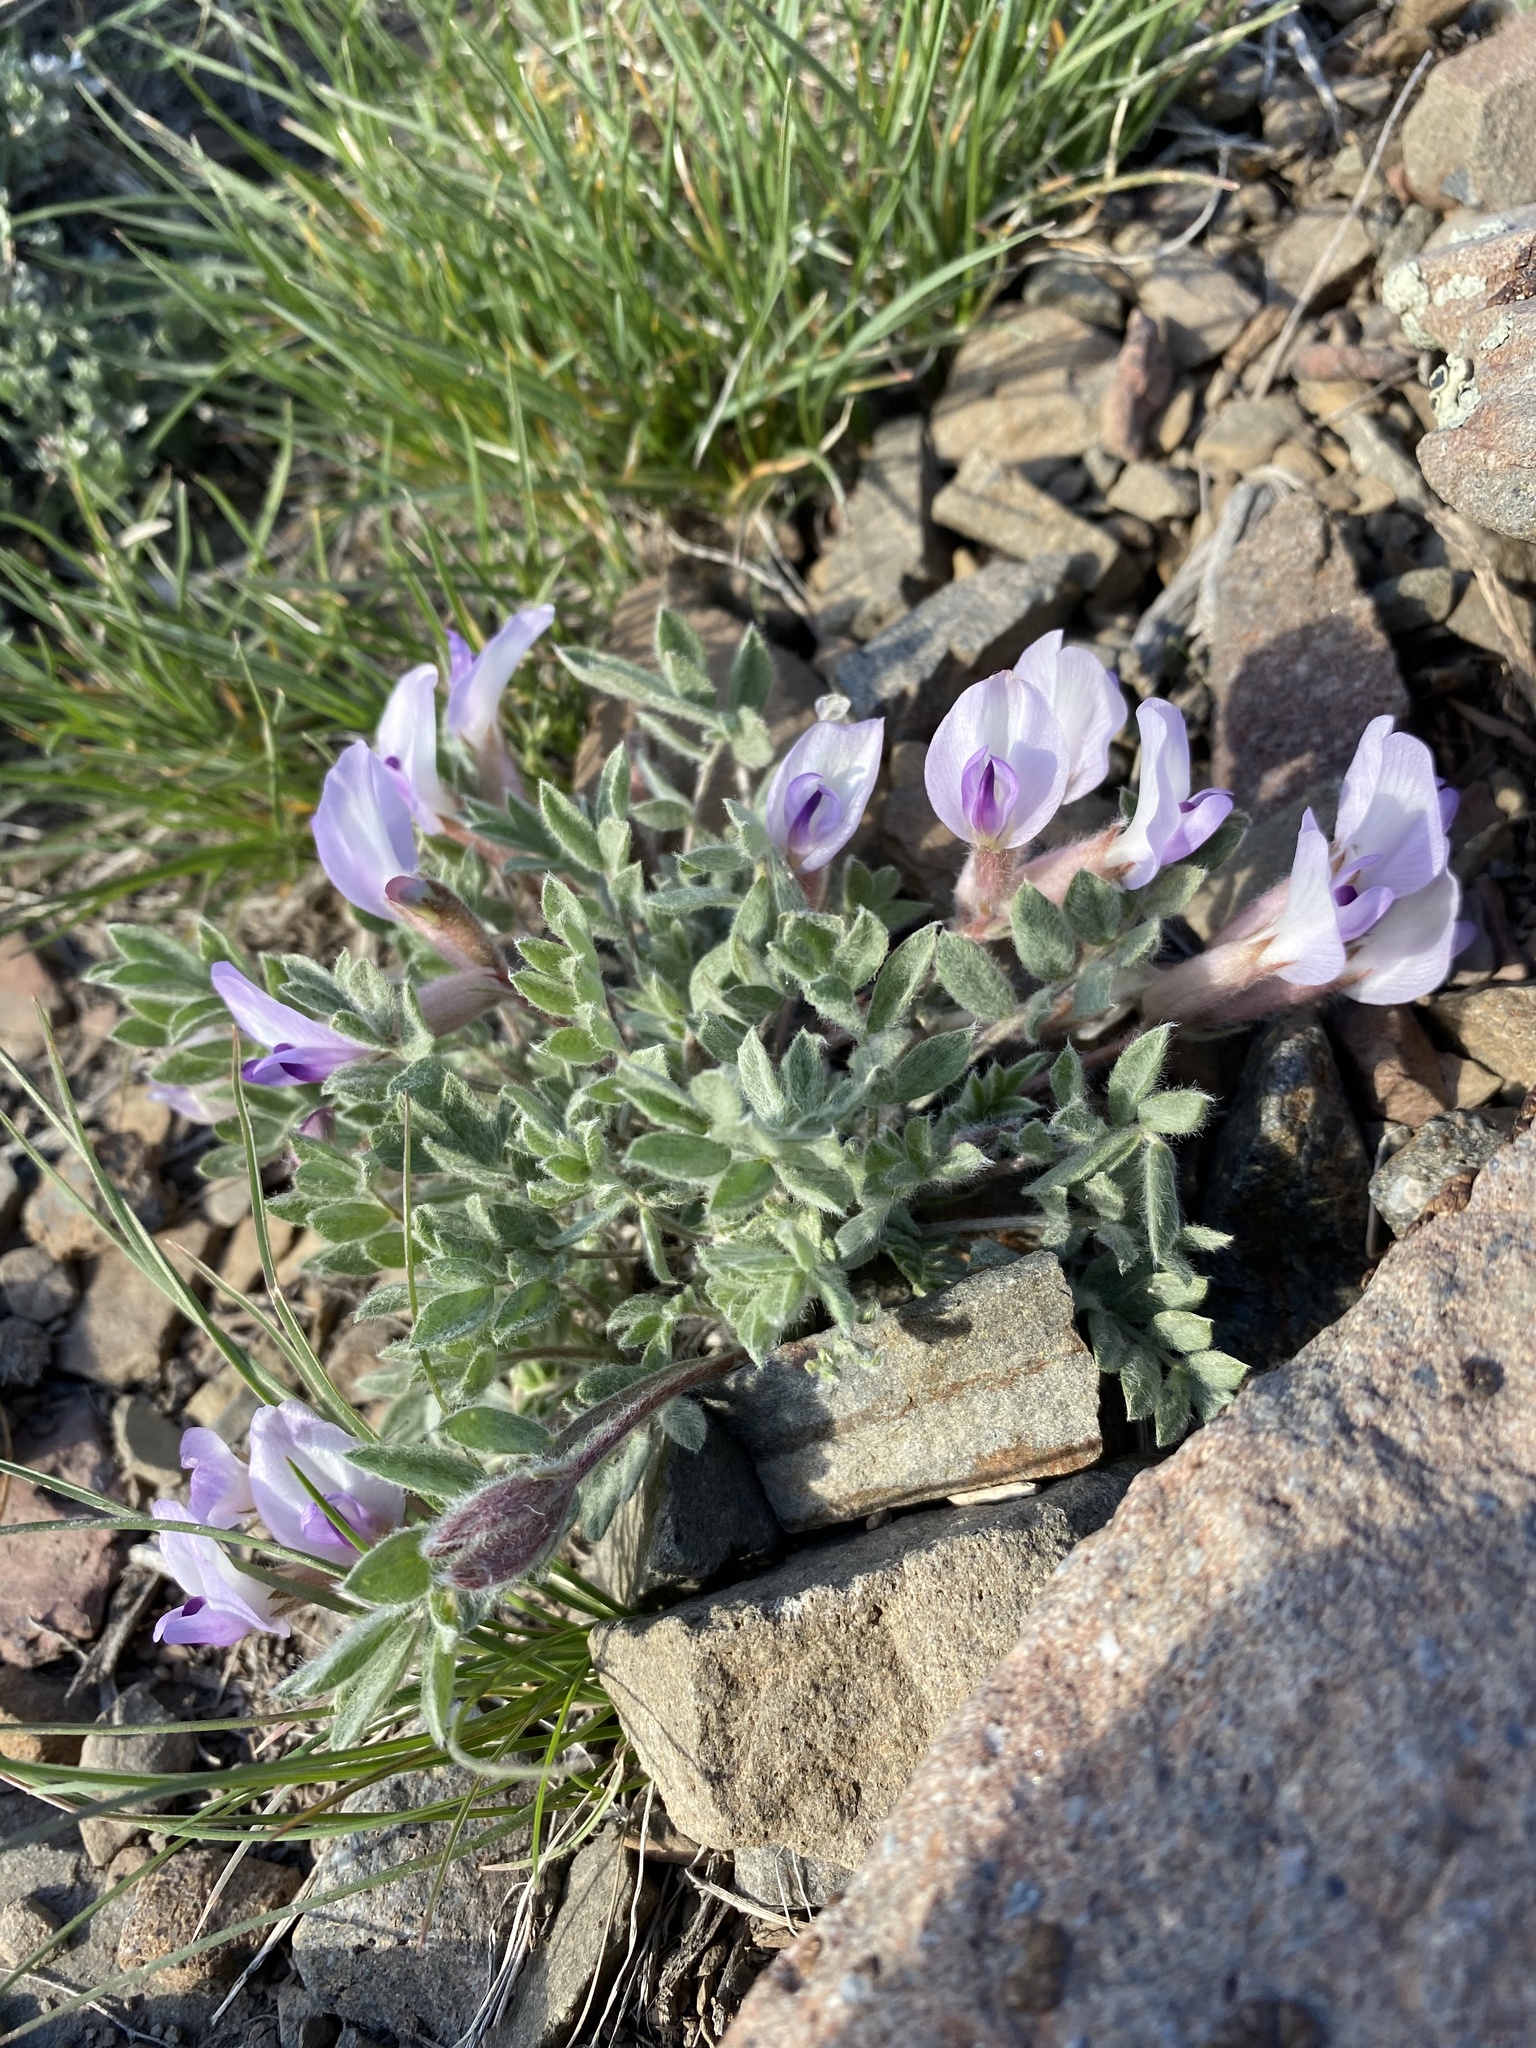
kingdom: Plantae
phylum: Tracheophyta
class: Magnoliopsida
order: Fabales
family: Fabaceae
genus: Astragalus
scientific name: Astragalus purshii
